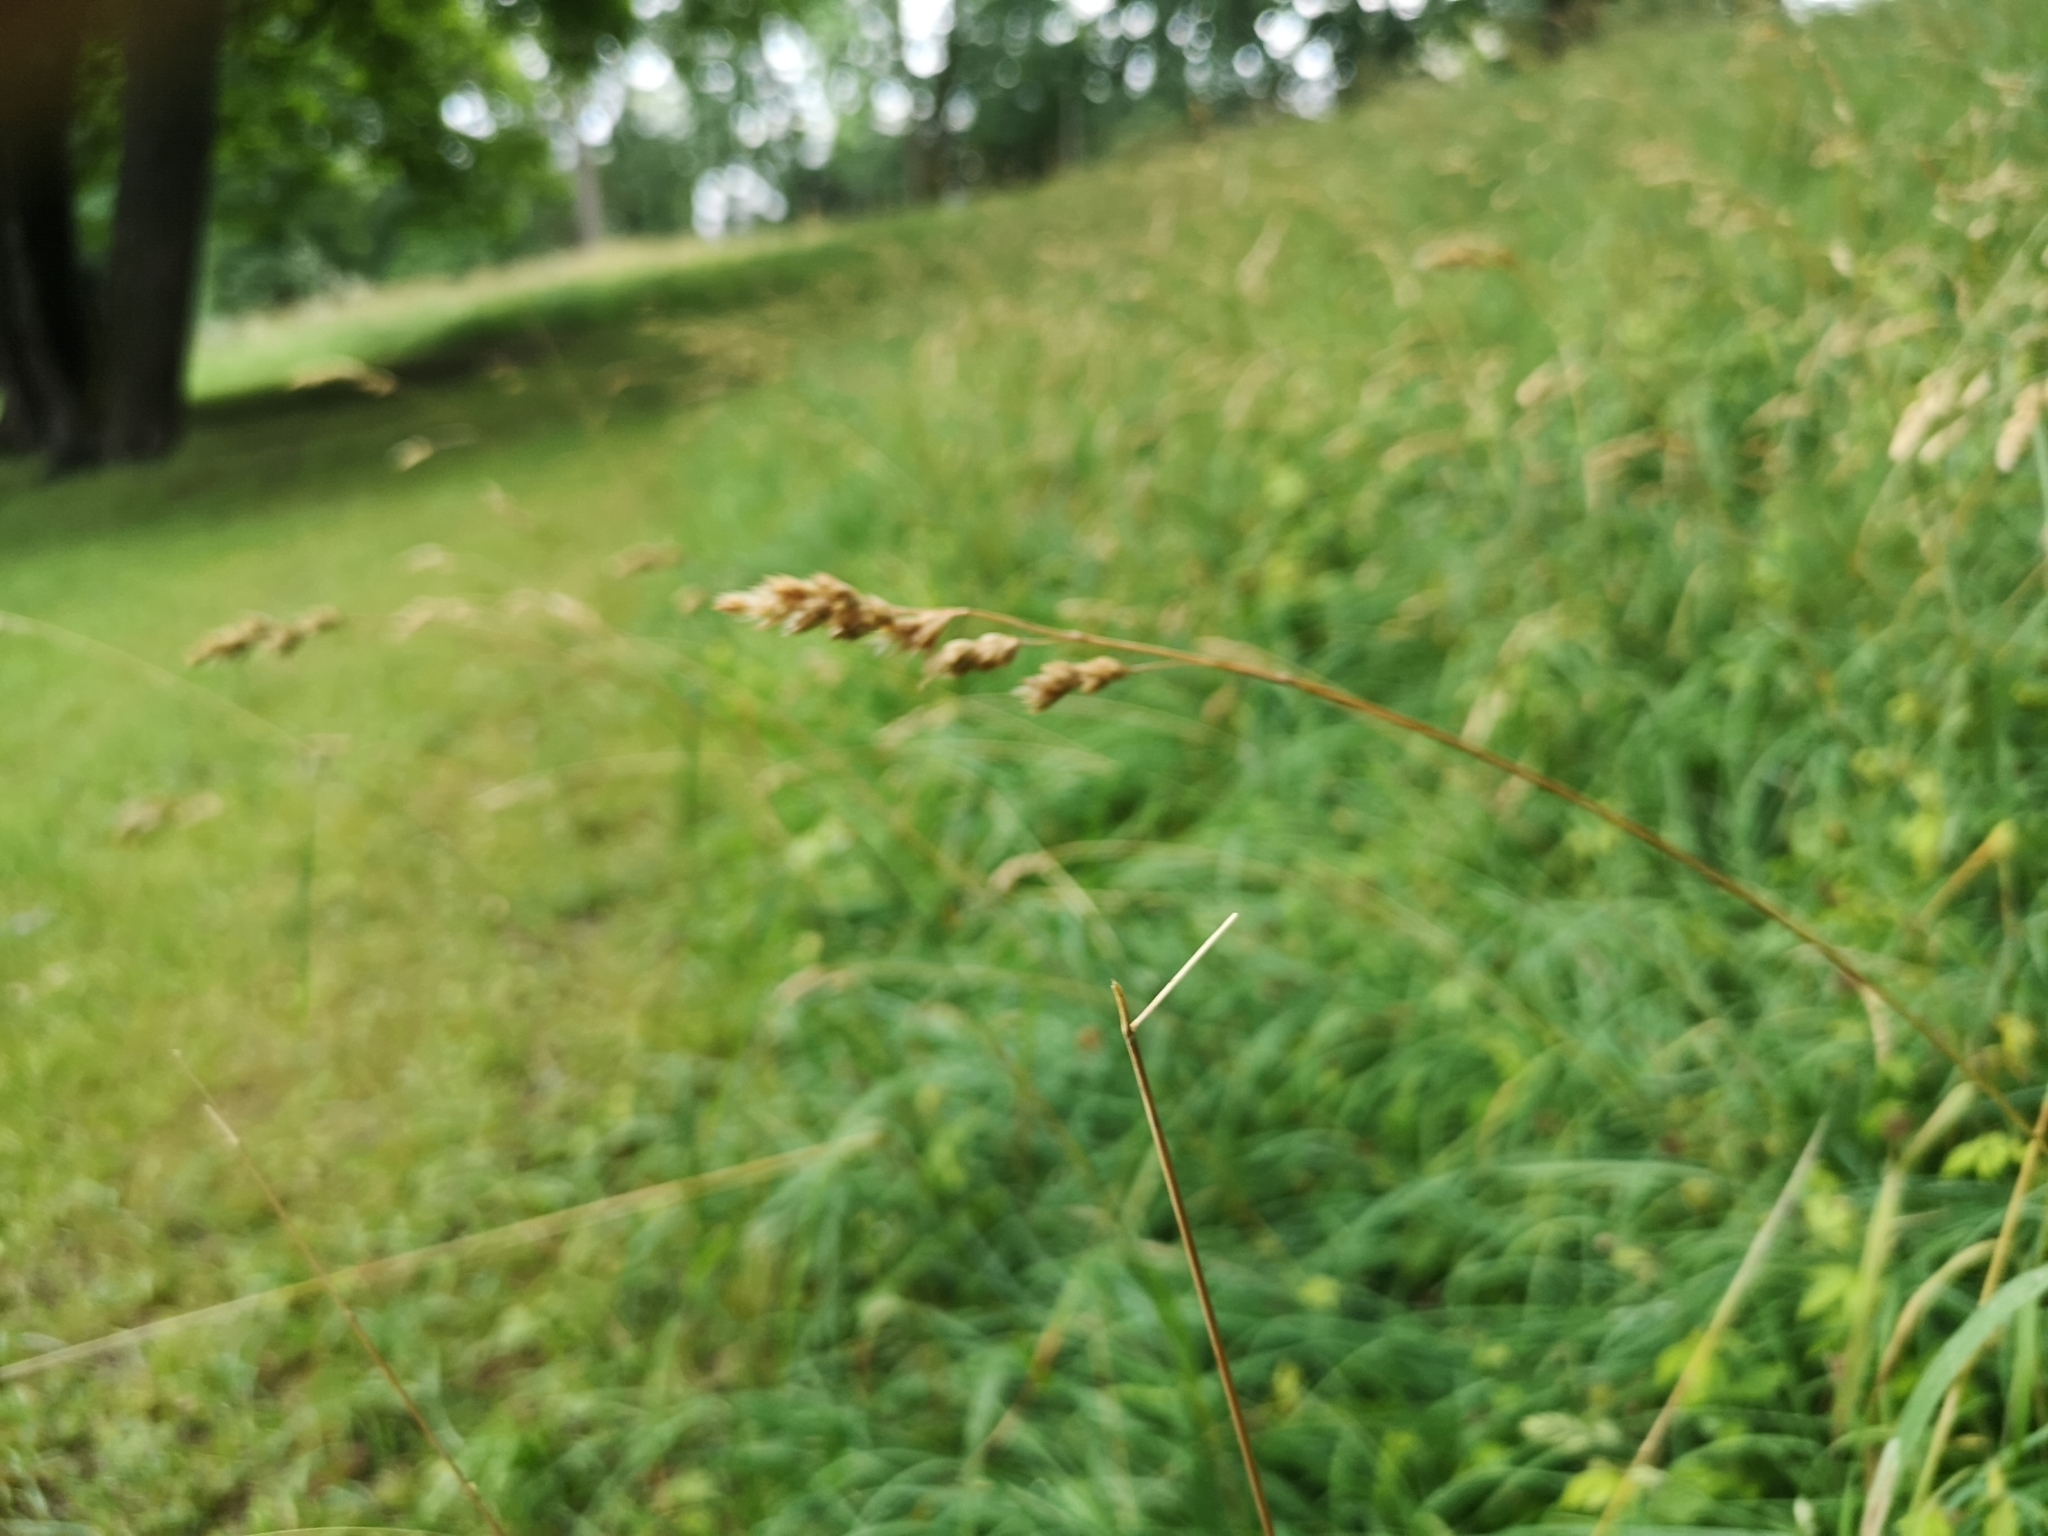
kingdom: Plantae
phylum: Tracheophyta
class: Liliopsida
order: Poales
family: Poaceae
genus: Dactylis
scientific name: Dactylis glomerata
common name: Orchardgrass
